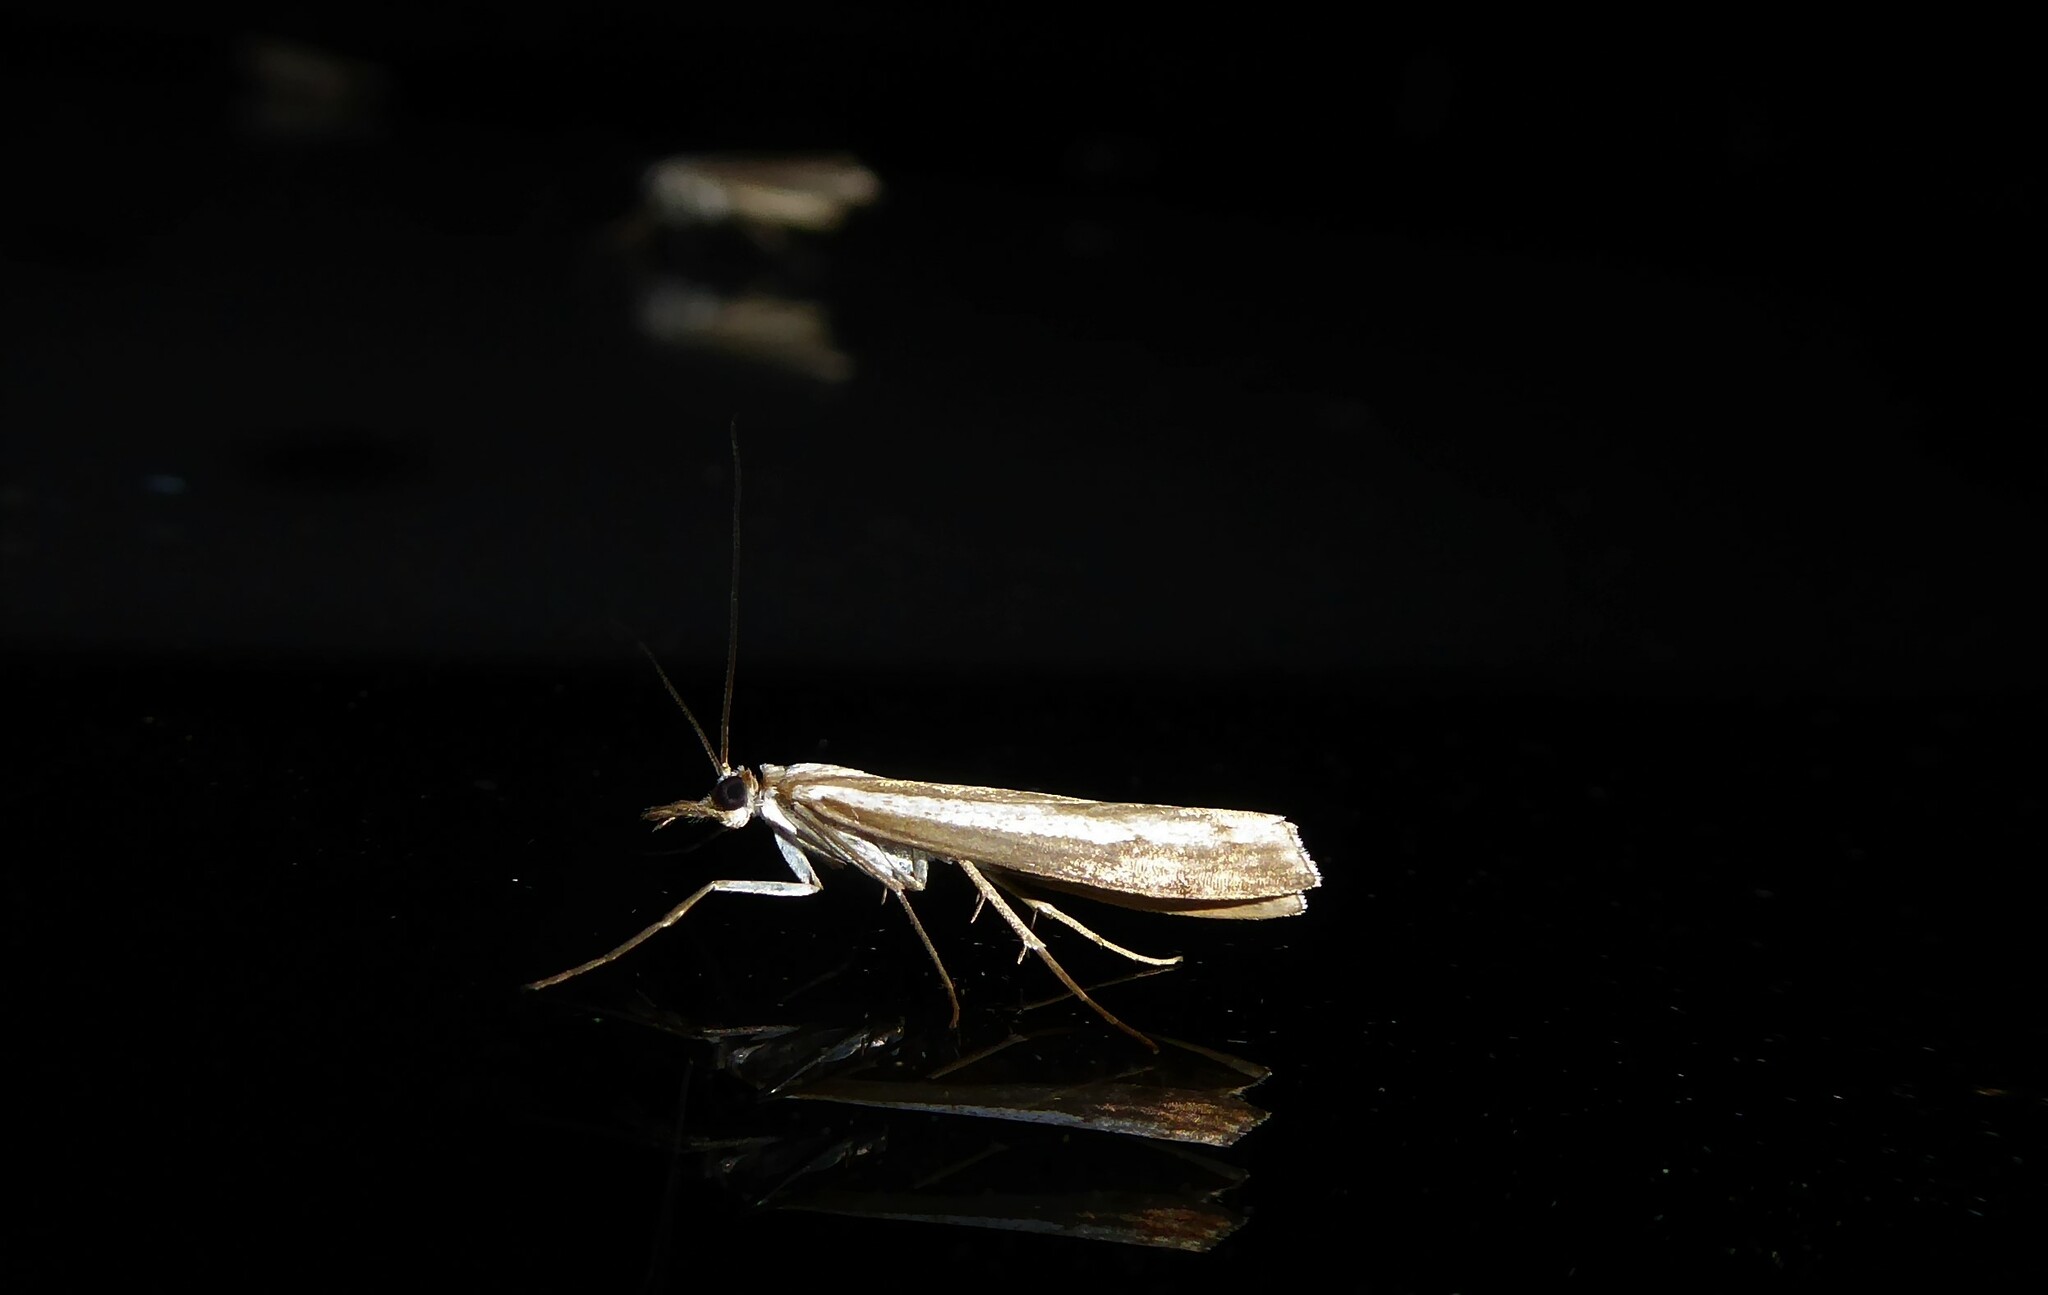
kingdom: Animalia
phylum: Arthropoda
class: Insecta
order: Lepidoptera
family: Crambidae
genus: Orocrambus
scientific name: Orocrambus vittellus
